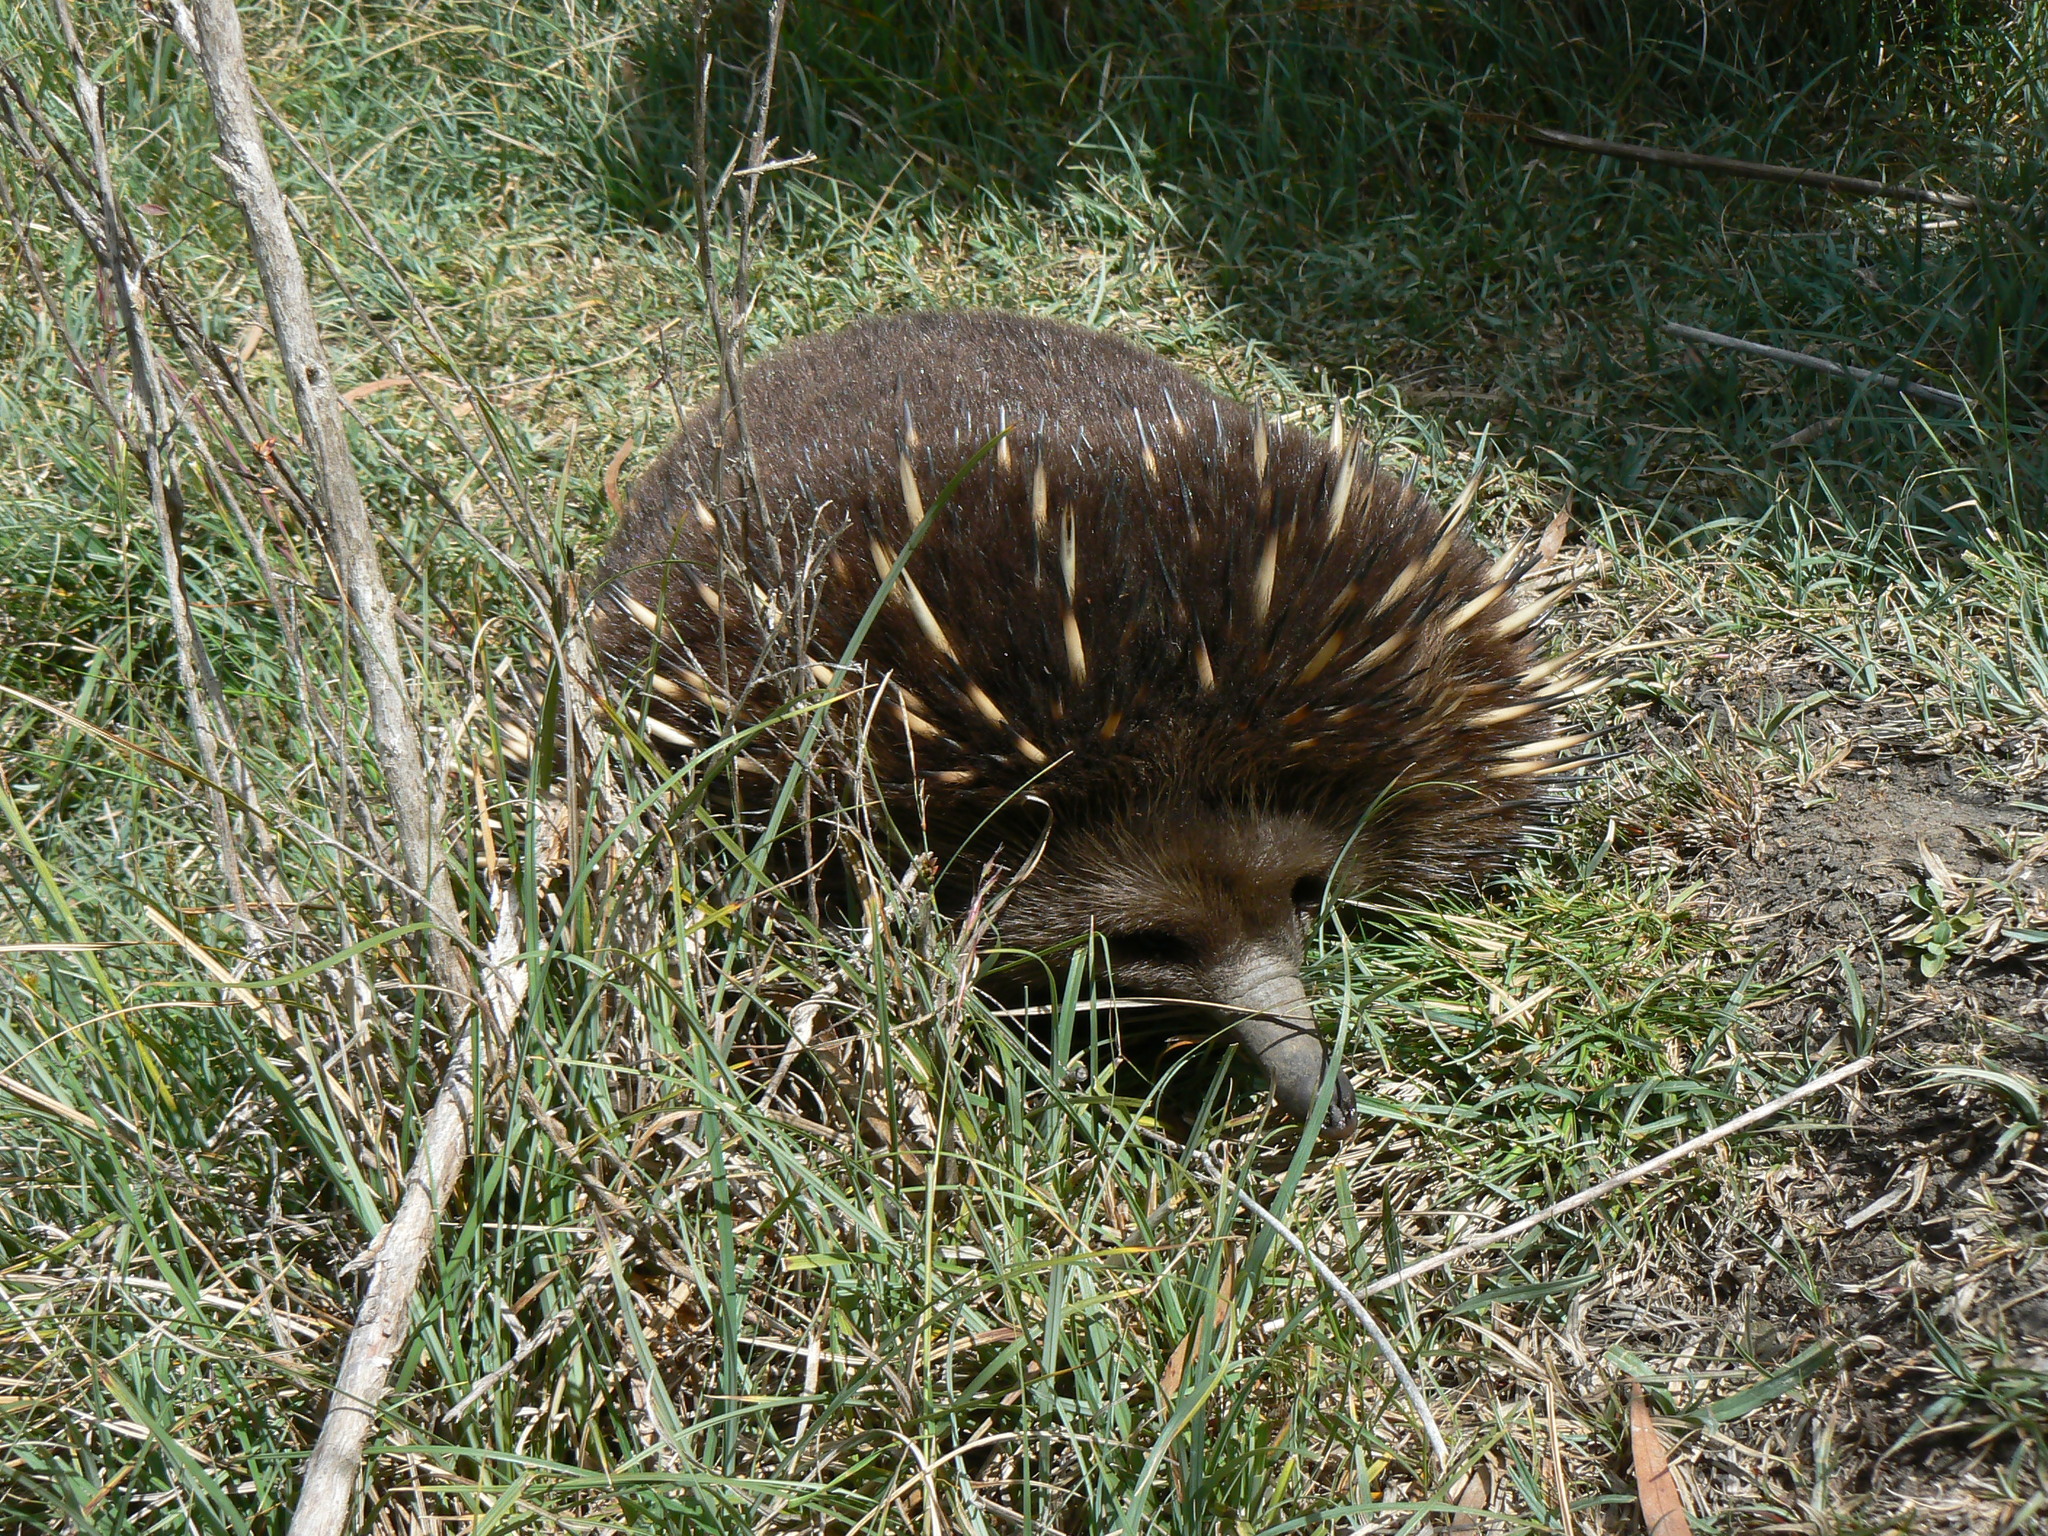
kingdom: Animalia
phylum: Chordata
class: Mammalia
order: Monotremata
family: Tachyglossidae
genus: Tachyglossus
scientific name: Tachyglossus aculeatus
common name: Short-beaked echidna
